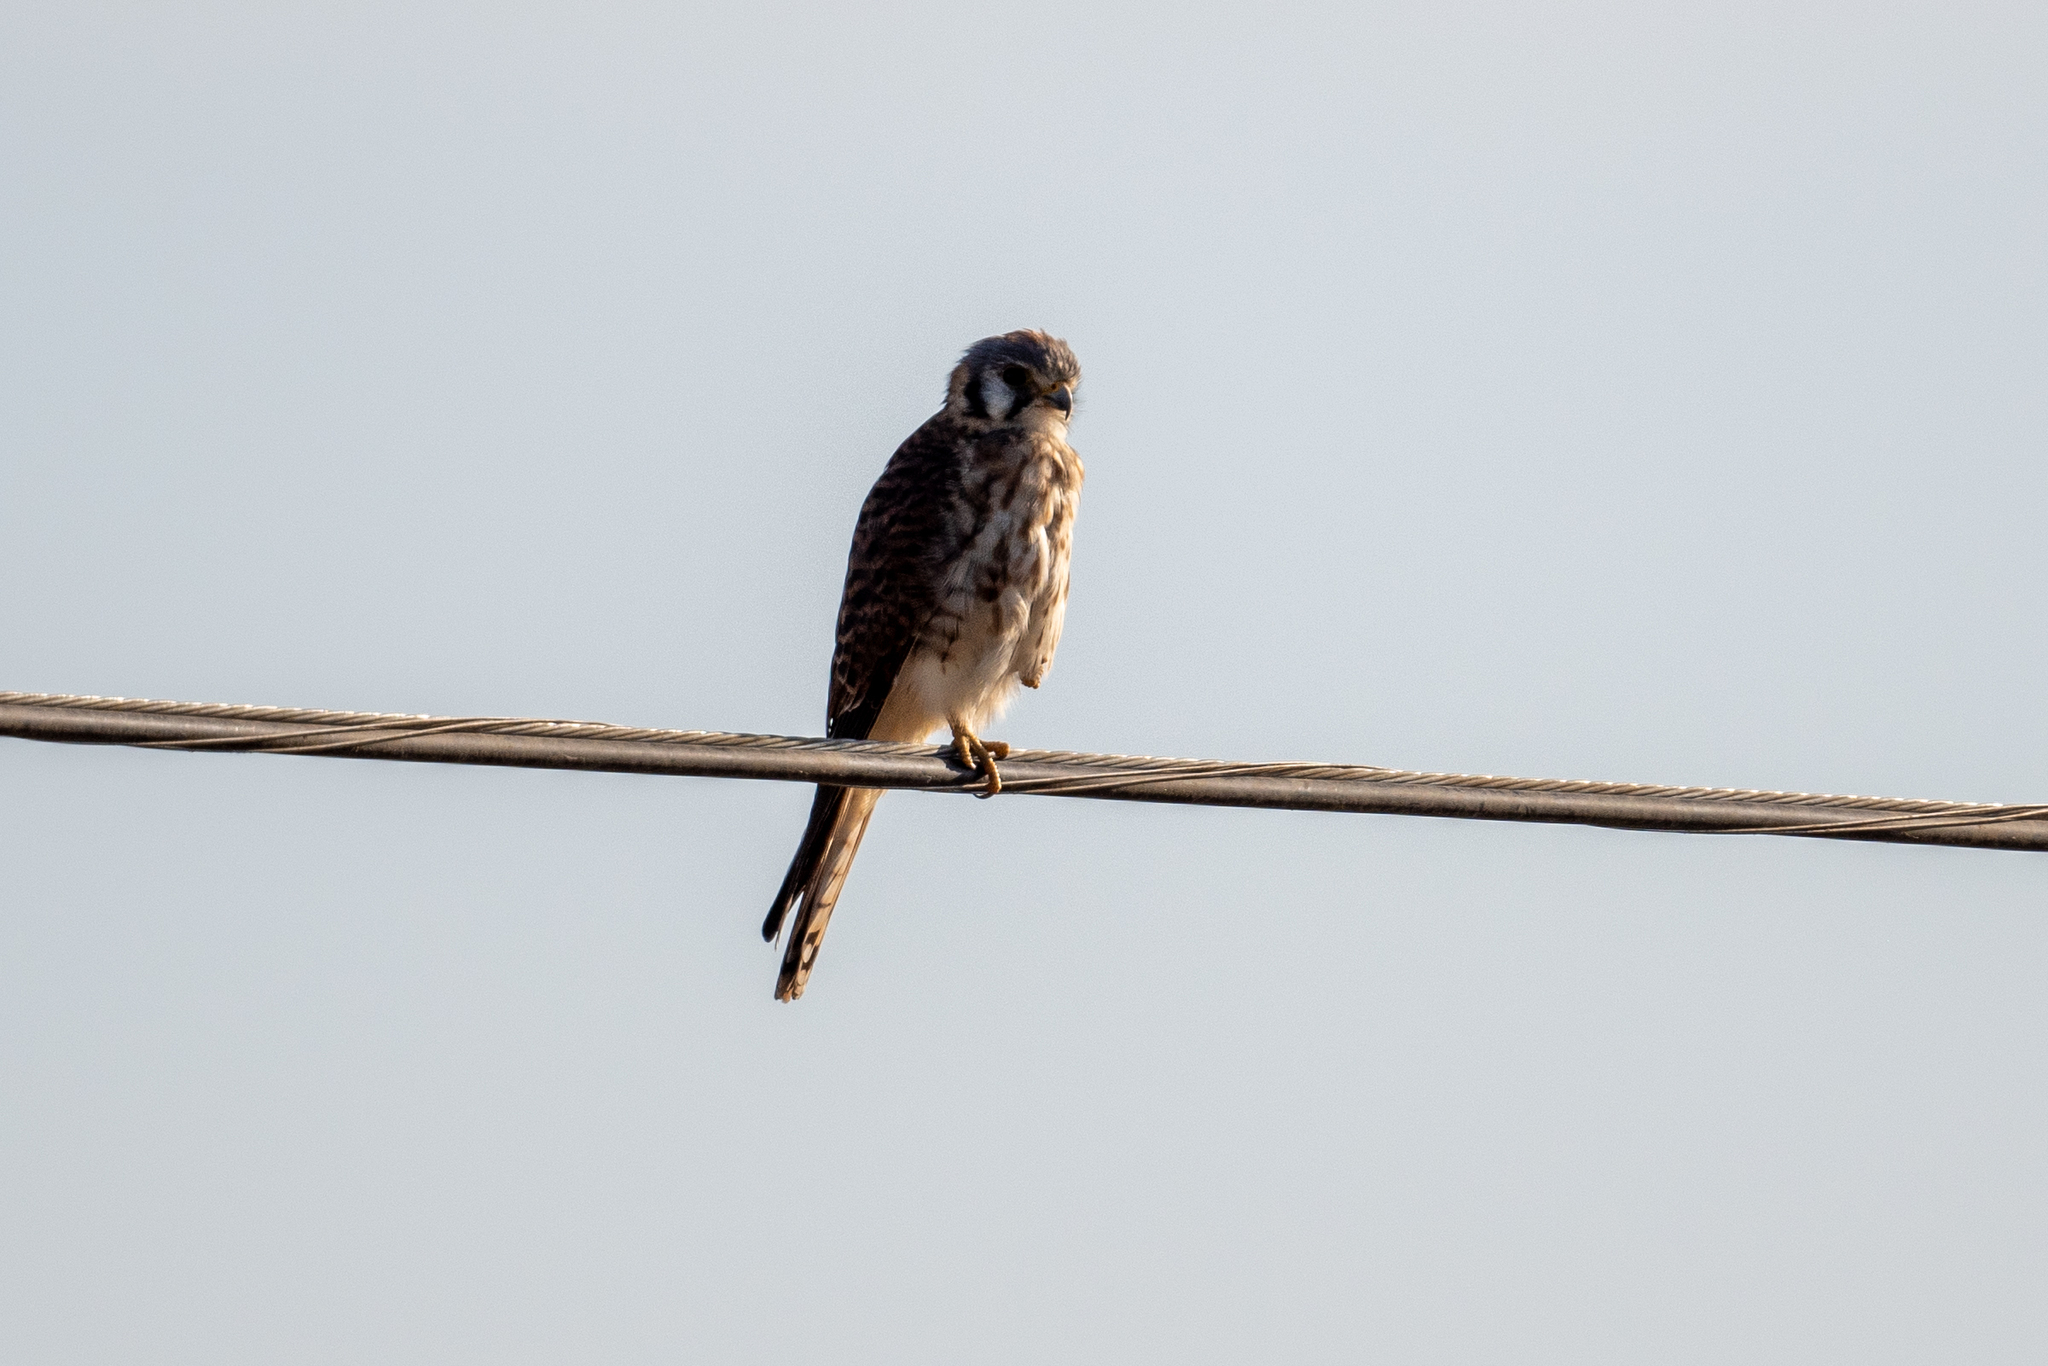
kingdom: Animalia
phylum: Chordata
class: Aves
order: Falconiformes
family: Falconidae
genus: Falco
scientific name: Falco sparverius
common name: American kestrel
